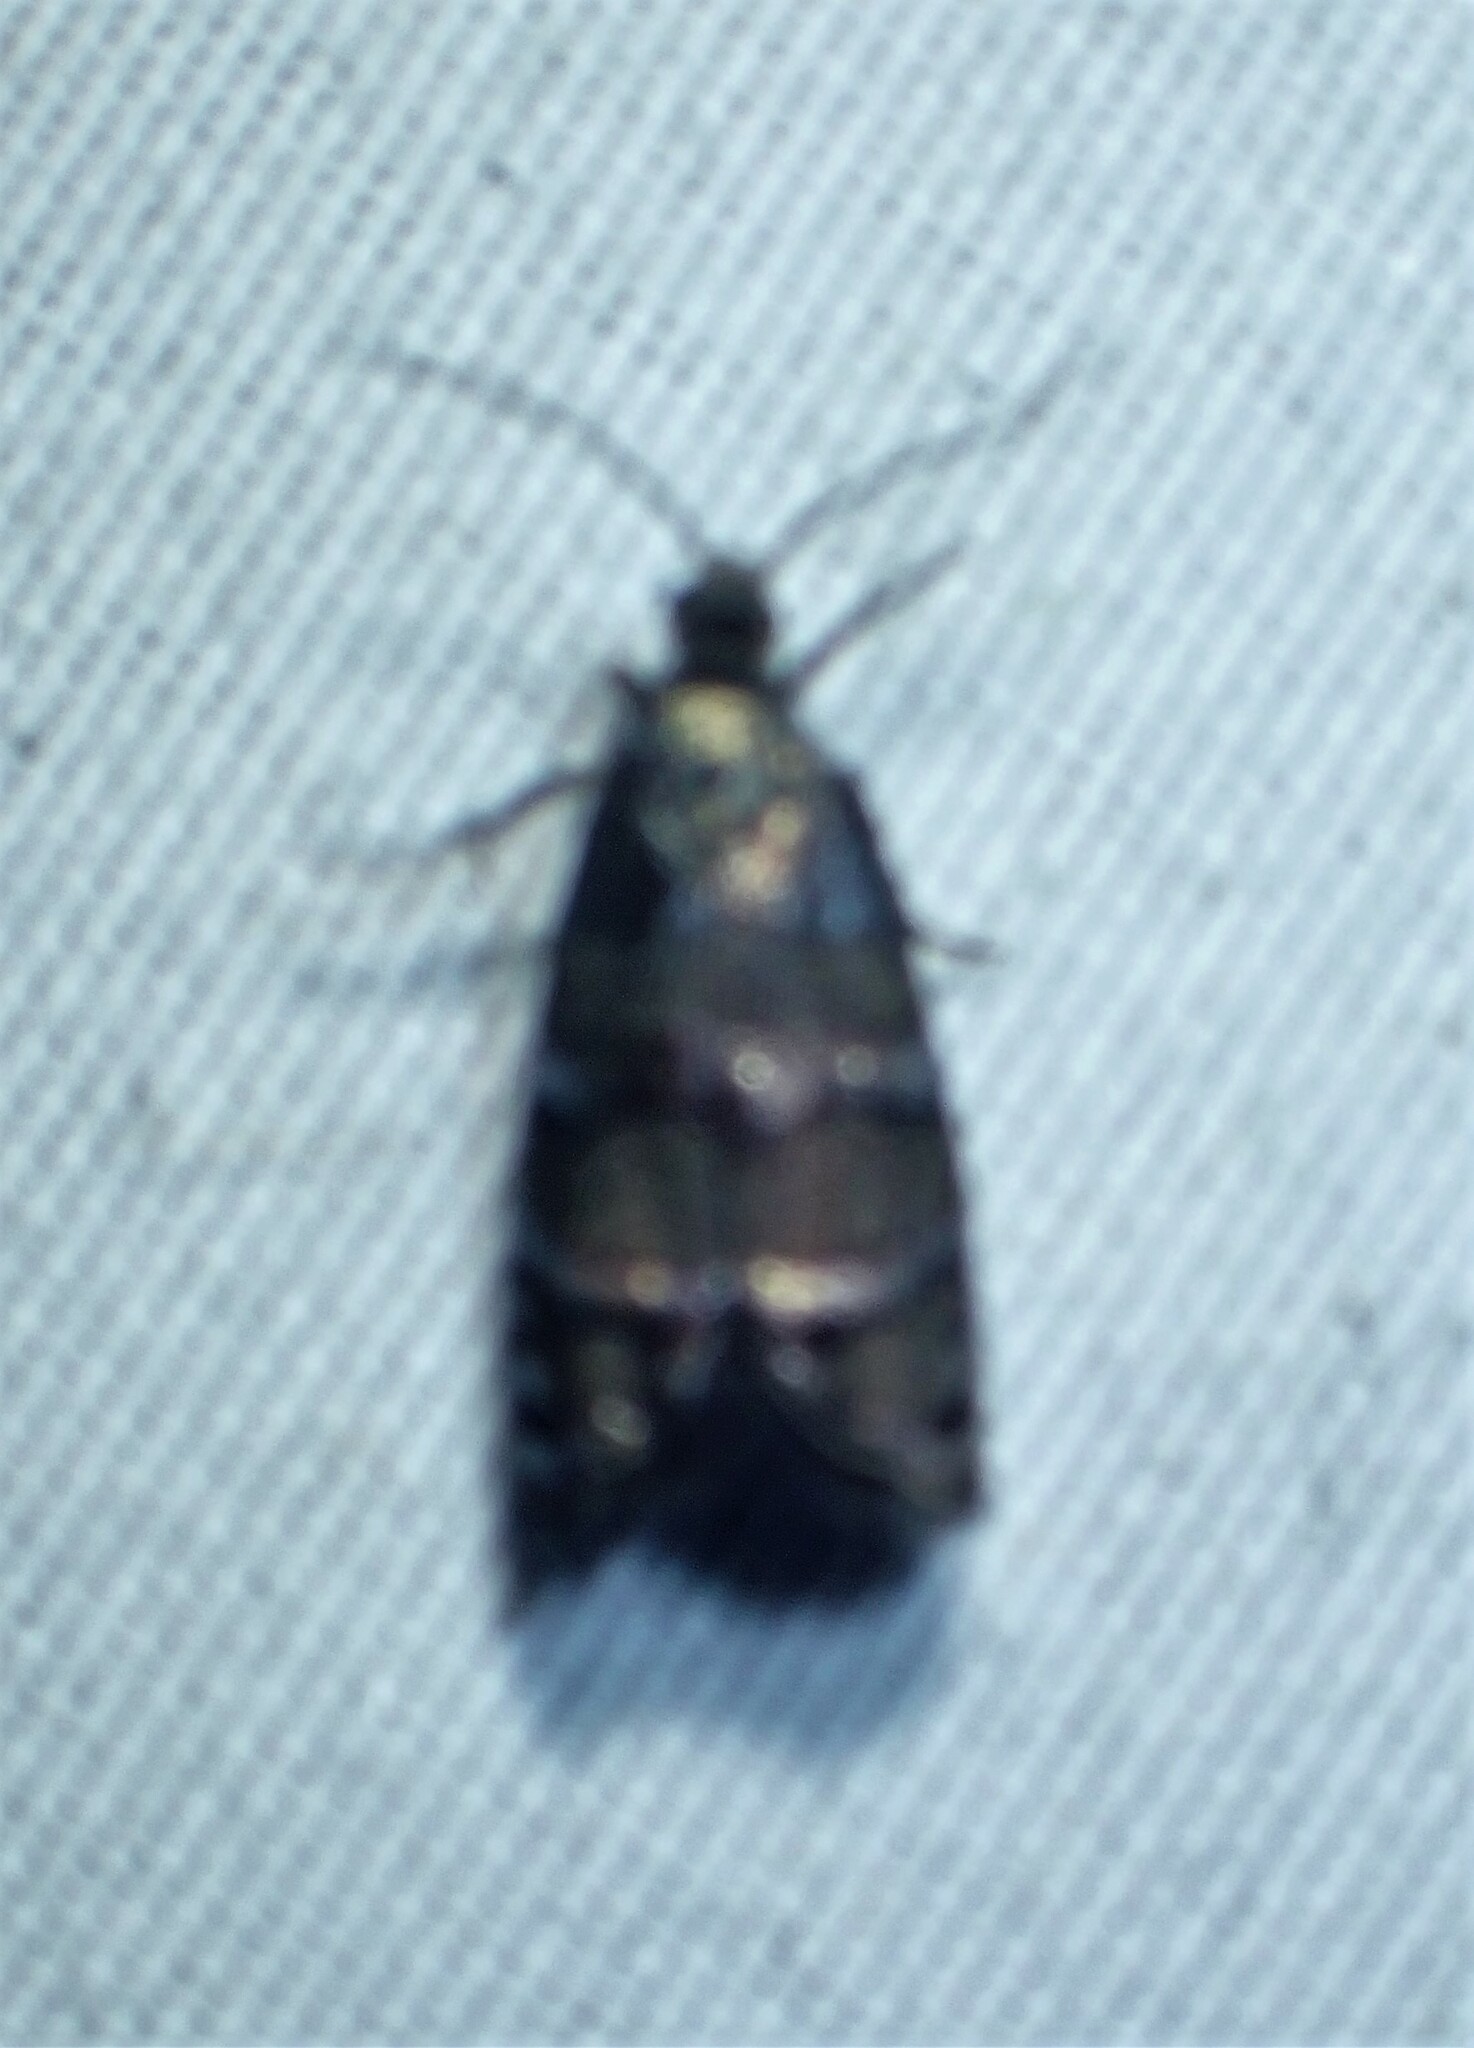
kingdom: Animalia
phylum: Arthropoda
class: Insecta
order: Lepidoptera
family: Tortricidae
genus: Cydia
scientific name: Cydia toreuta
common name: Eastern pine seedworm moth
